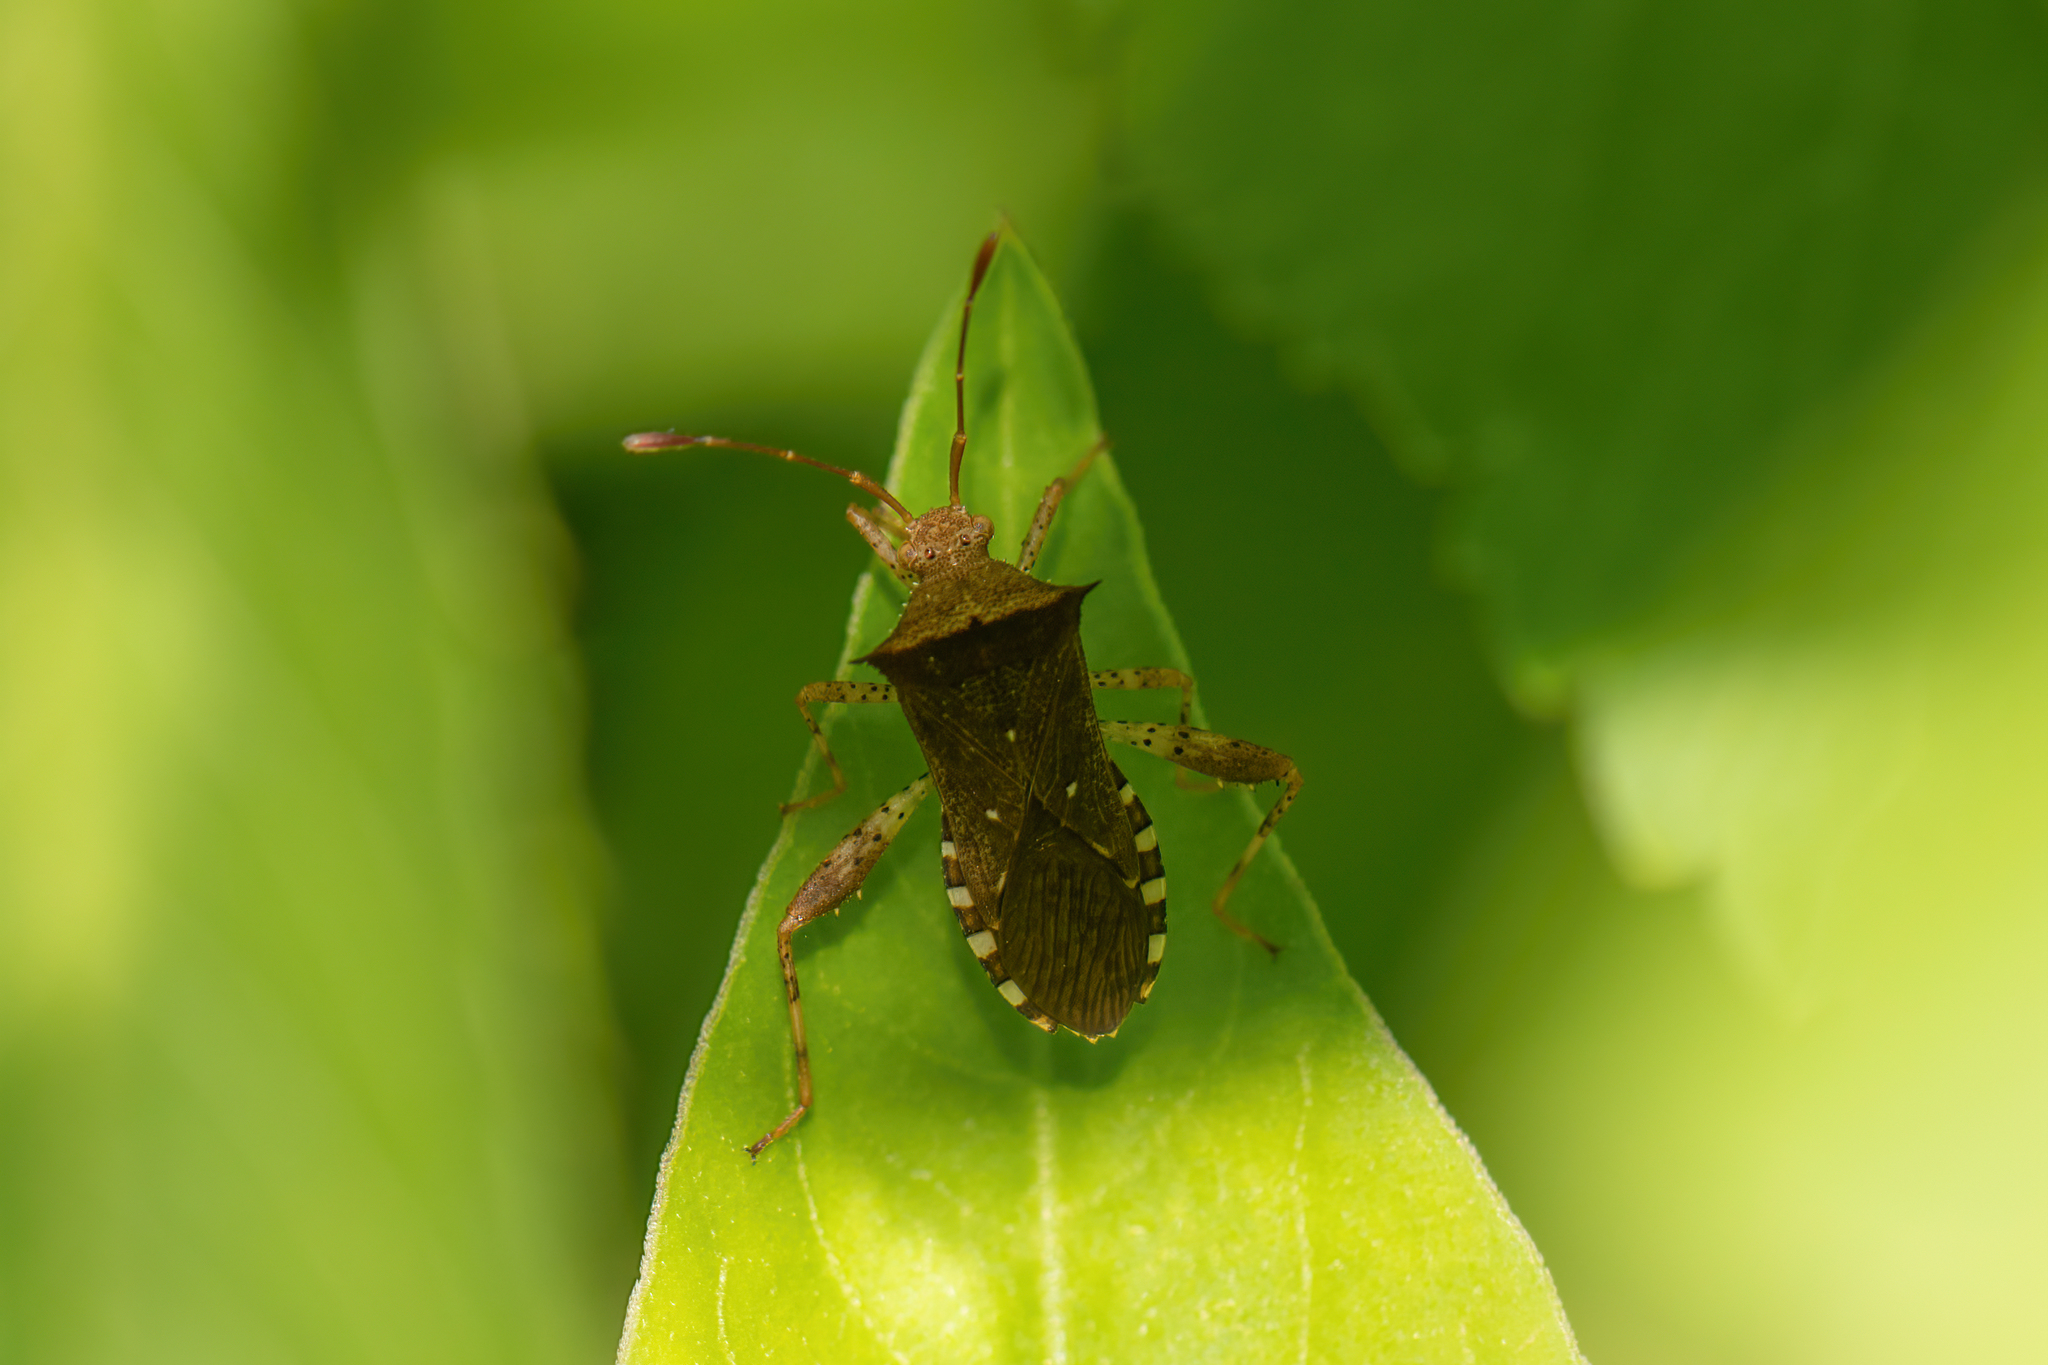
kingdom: Animalia
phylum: Arthropoda
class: Insecta
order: Hemiptera
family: Coreidae
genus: Zicca
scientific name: Zicca taeniola
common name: Leaf-footed bug
